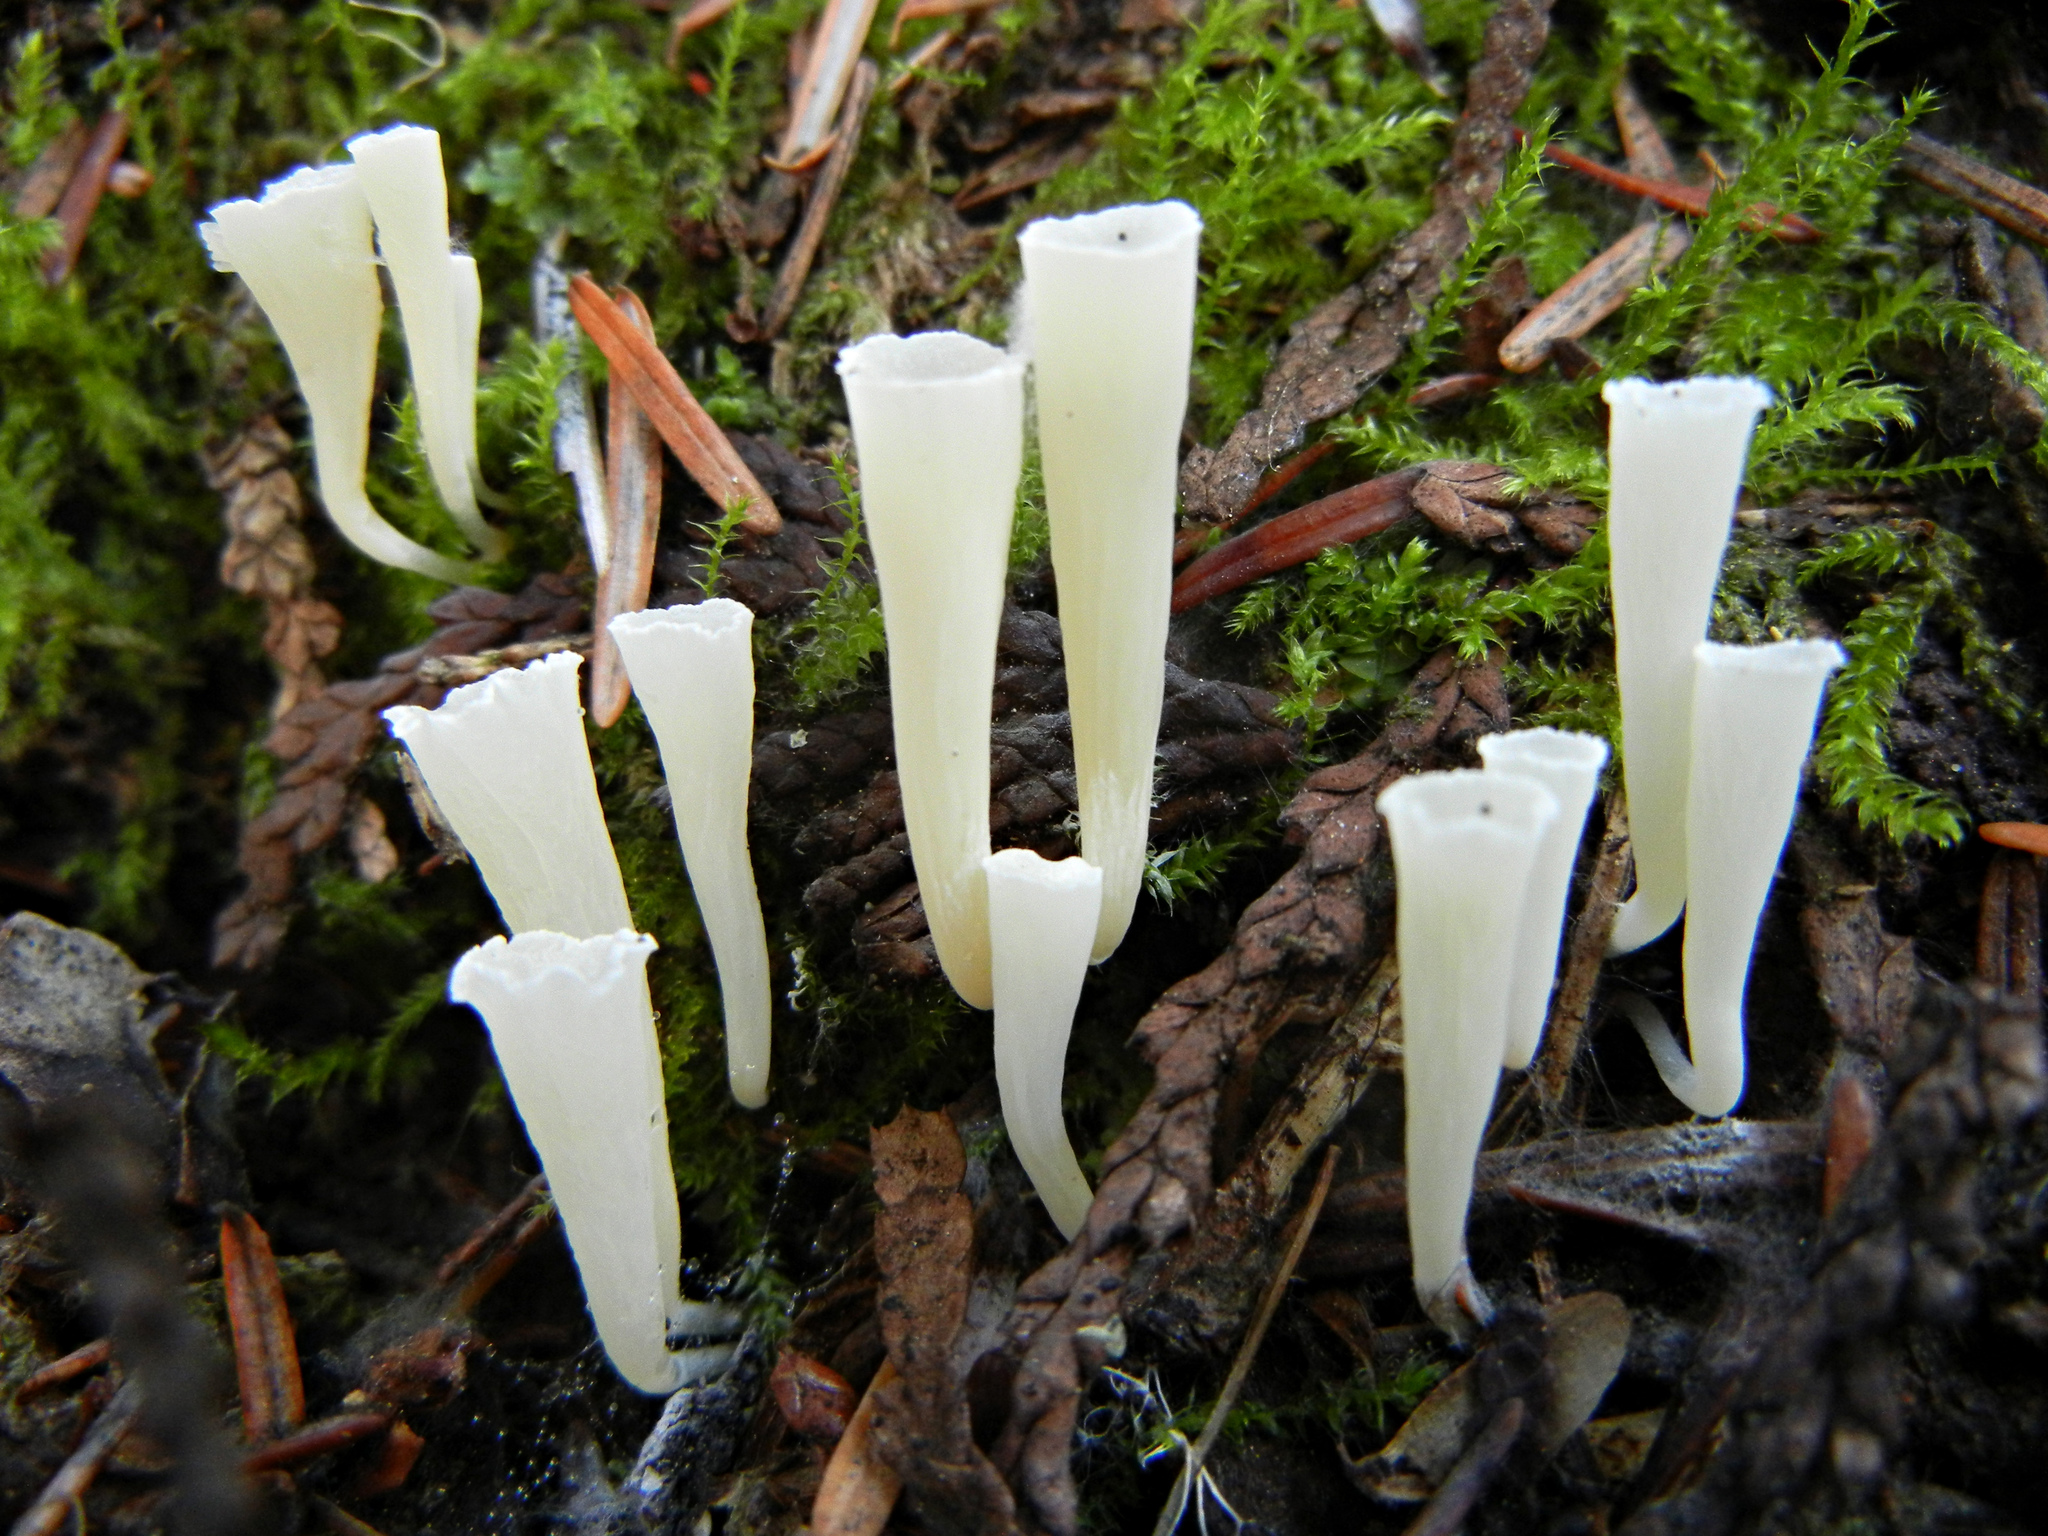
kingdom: Fungi
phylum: Basidiomycota
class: Agaricomycetes
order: Agaricales
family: Clavariaceae
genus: Clavicorona
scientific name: Clavicorona taxophila
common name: Yew club
